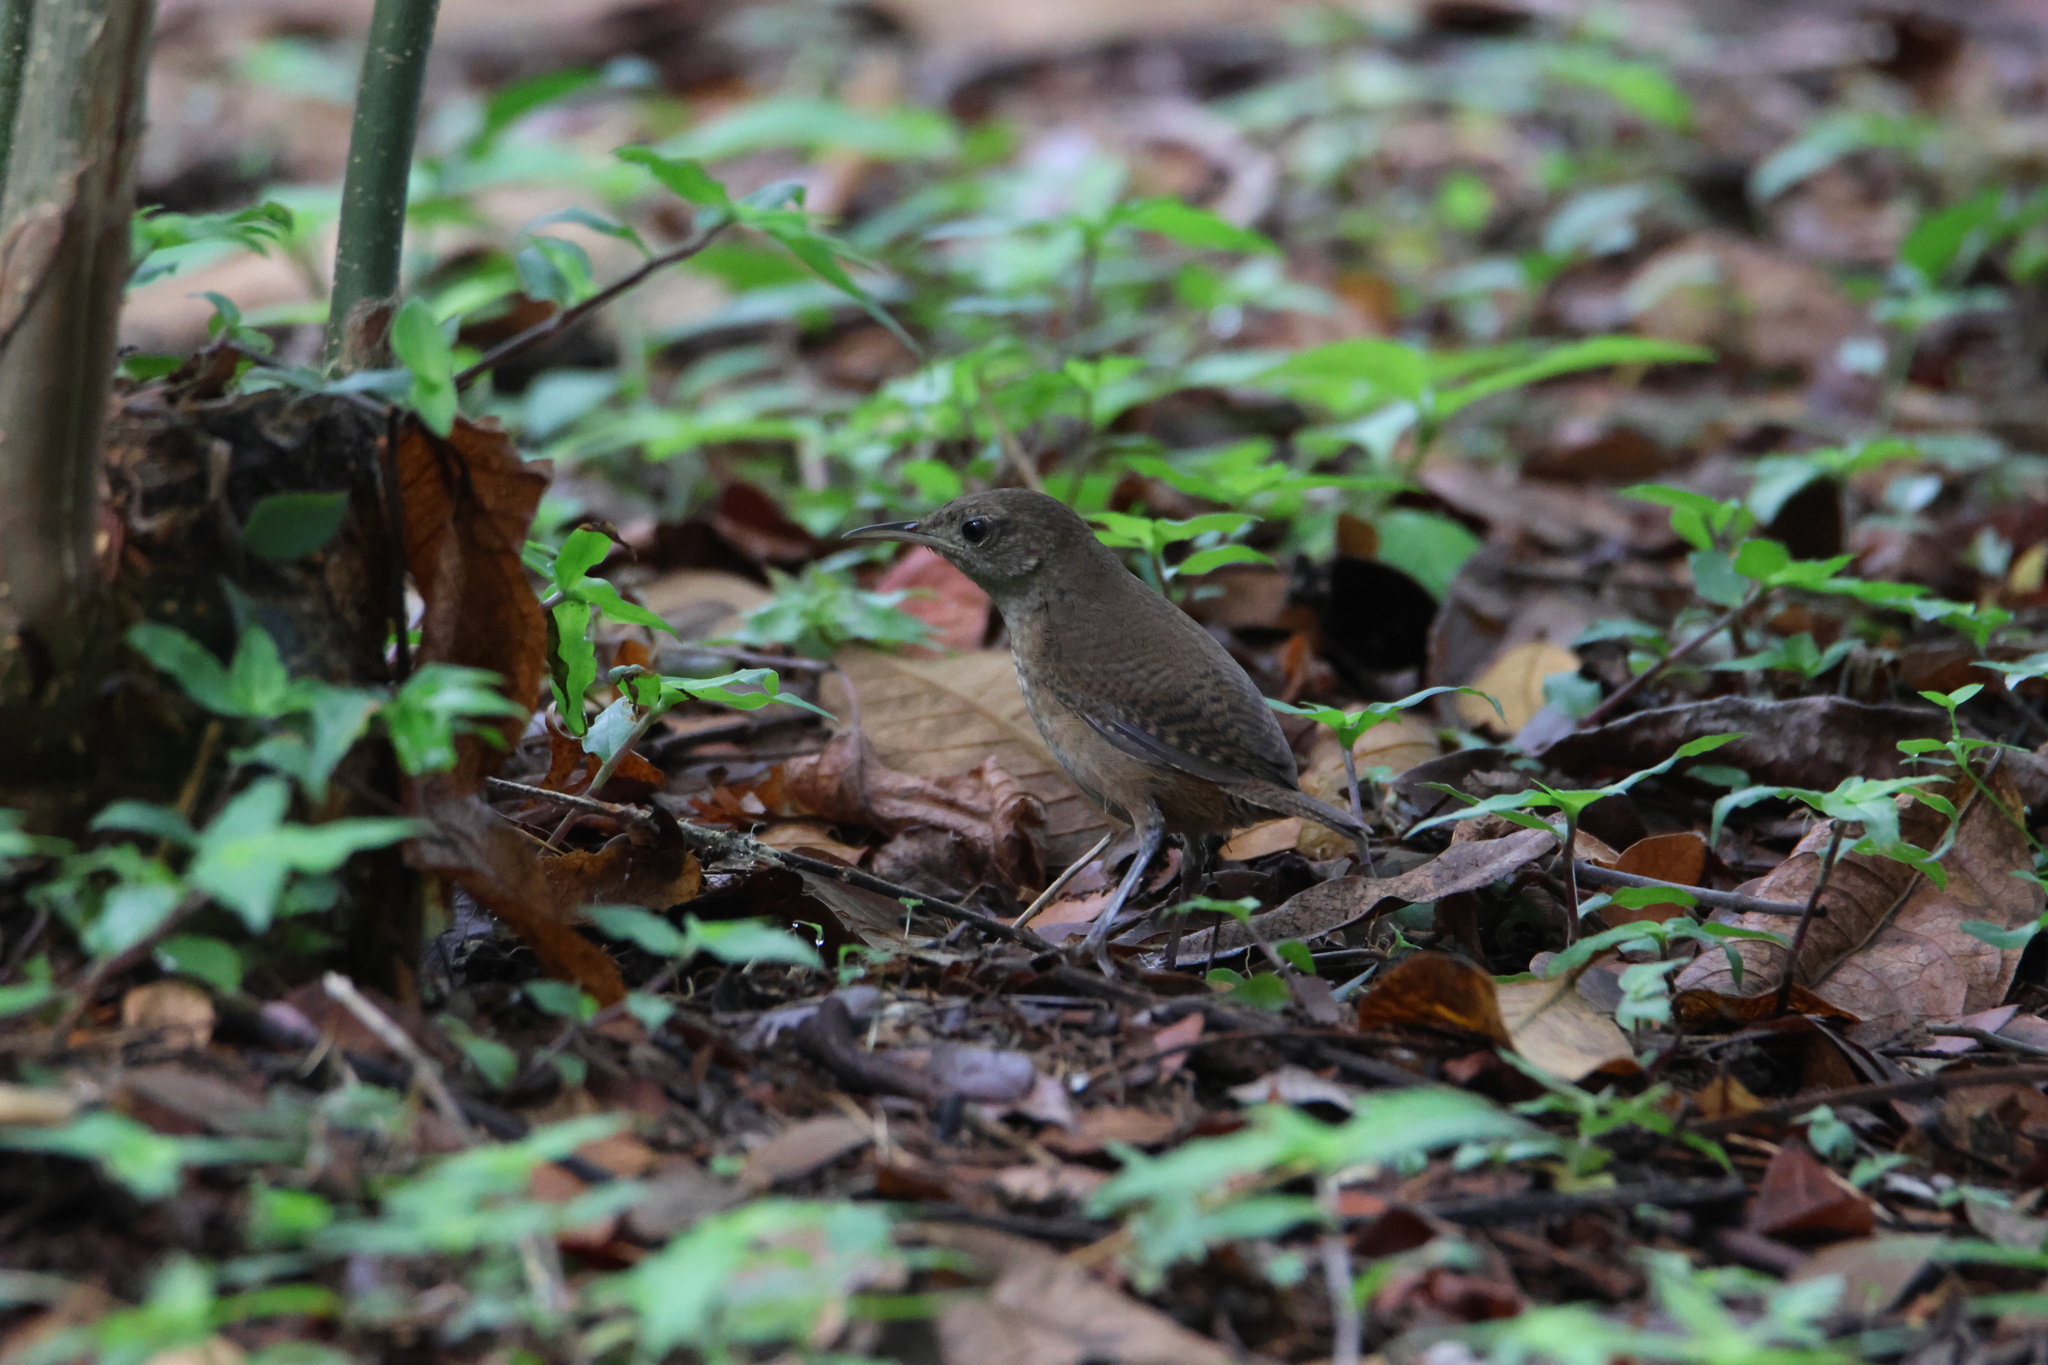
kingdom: Animalia
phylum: Chordata
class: Aves
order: Passeriformes
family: Troglodytidae
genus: Troglodytes
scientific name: Troglodytes aedon
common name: House wren
